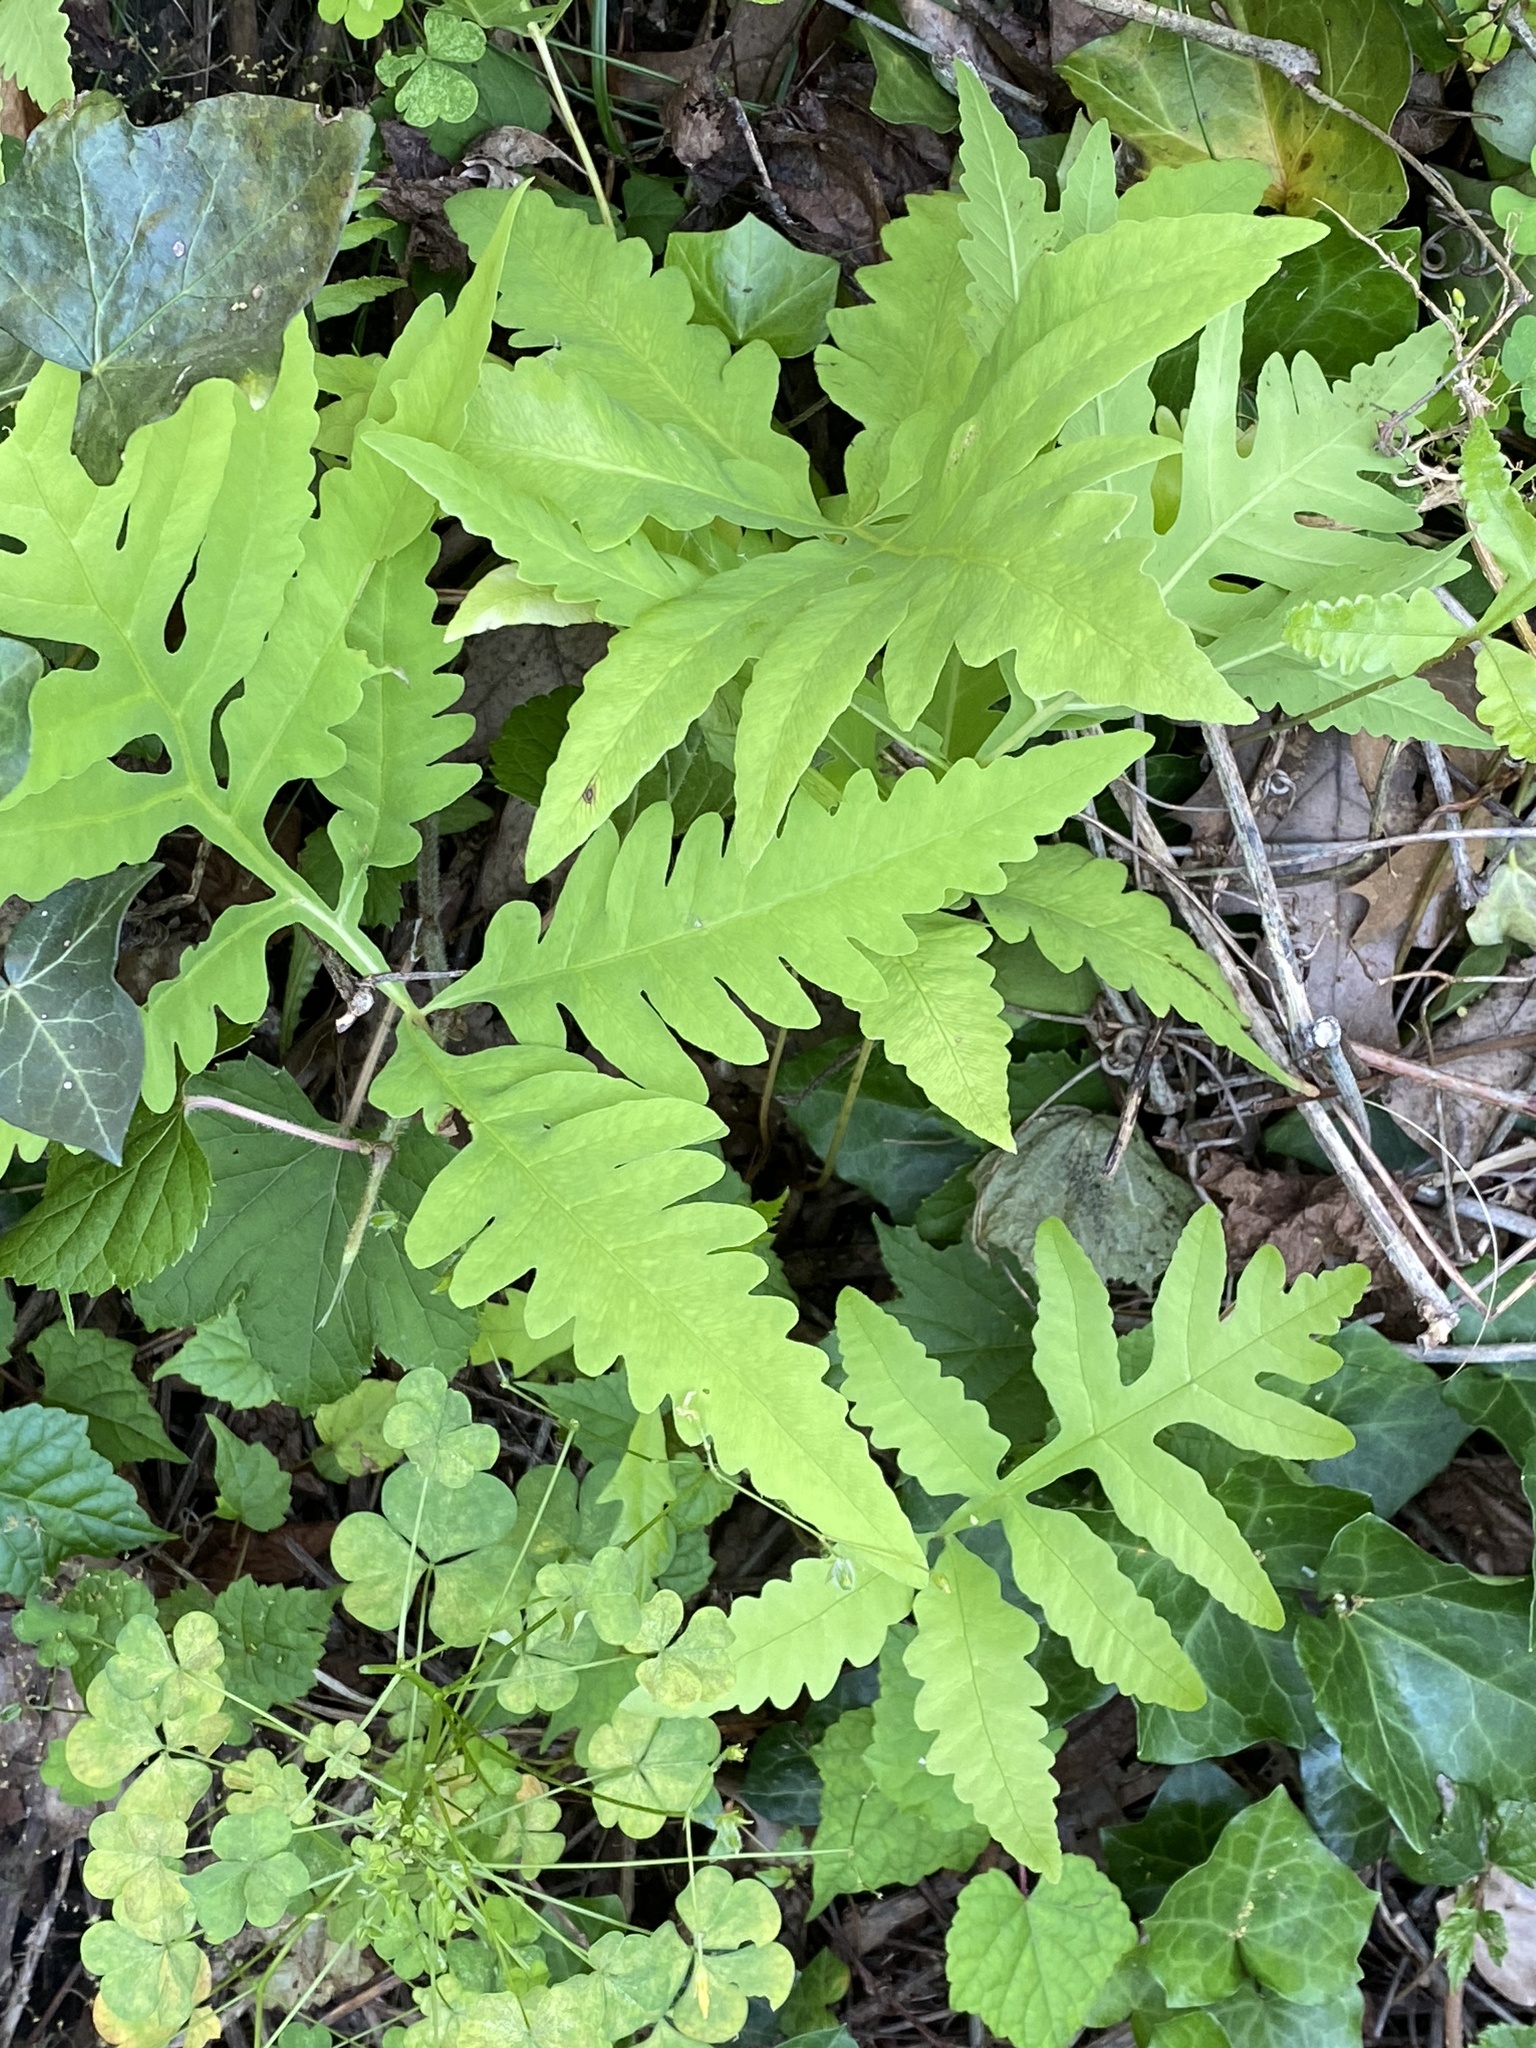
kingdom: Plantae
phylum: Tracheophyta
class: Polypodiopsida
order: Polypodiales
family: Onocleaceae
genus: Onoclea
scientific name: Onoclea sensibilis
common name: Sensitive fern
